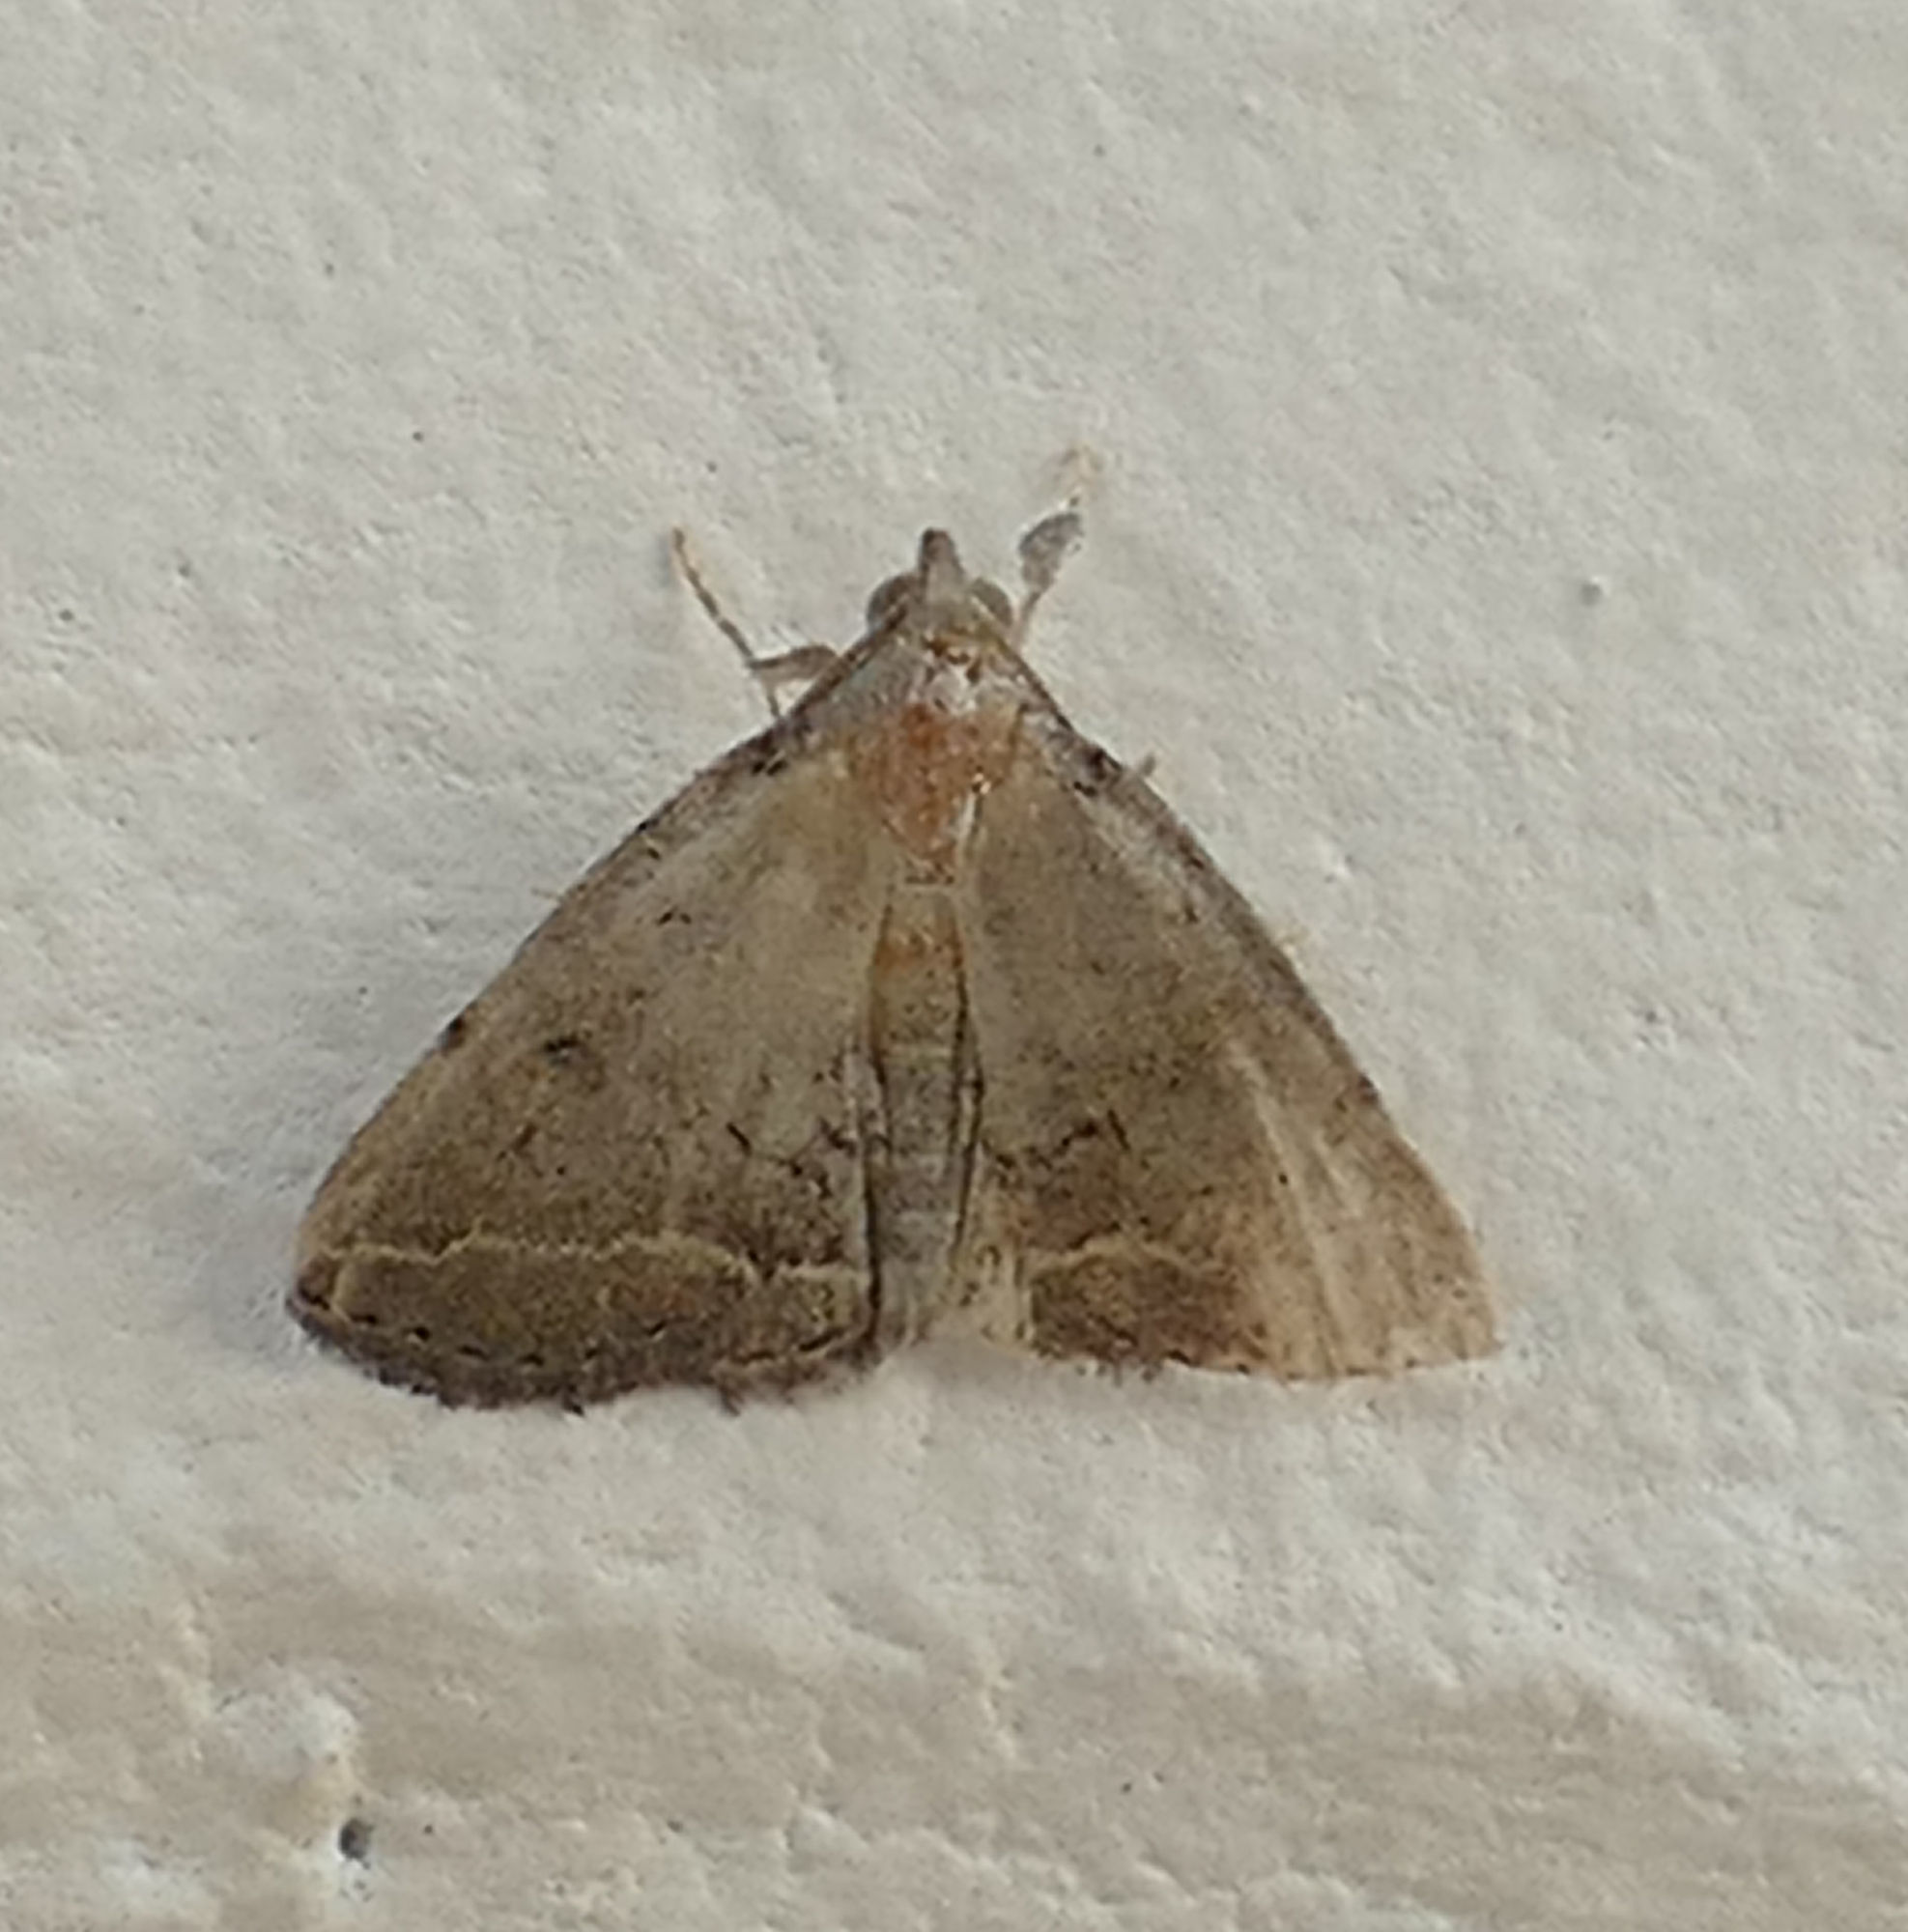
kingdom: Animalia
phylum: Arthropoda
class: Insecta
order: Lepidoptera
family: Erebidae
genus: Zanclognatha
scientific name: Zanclognatha
